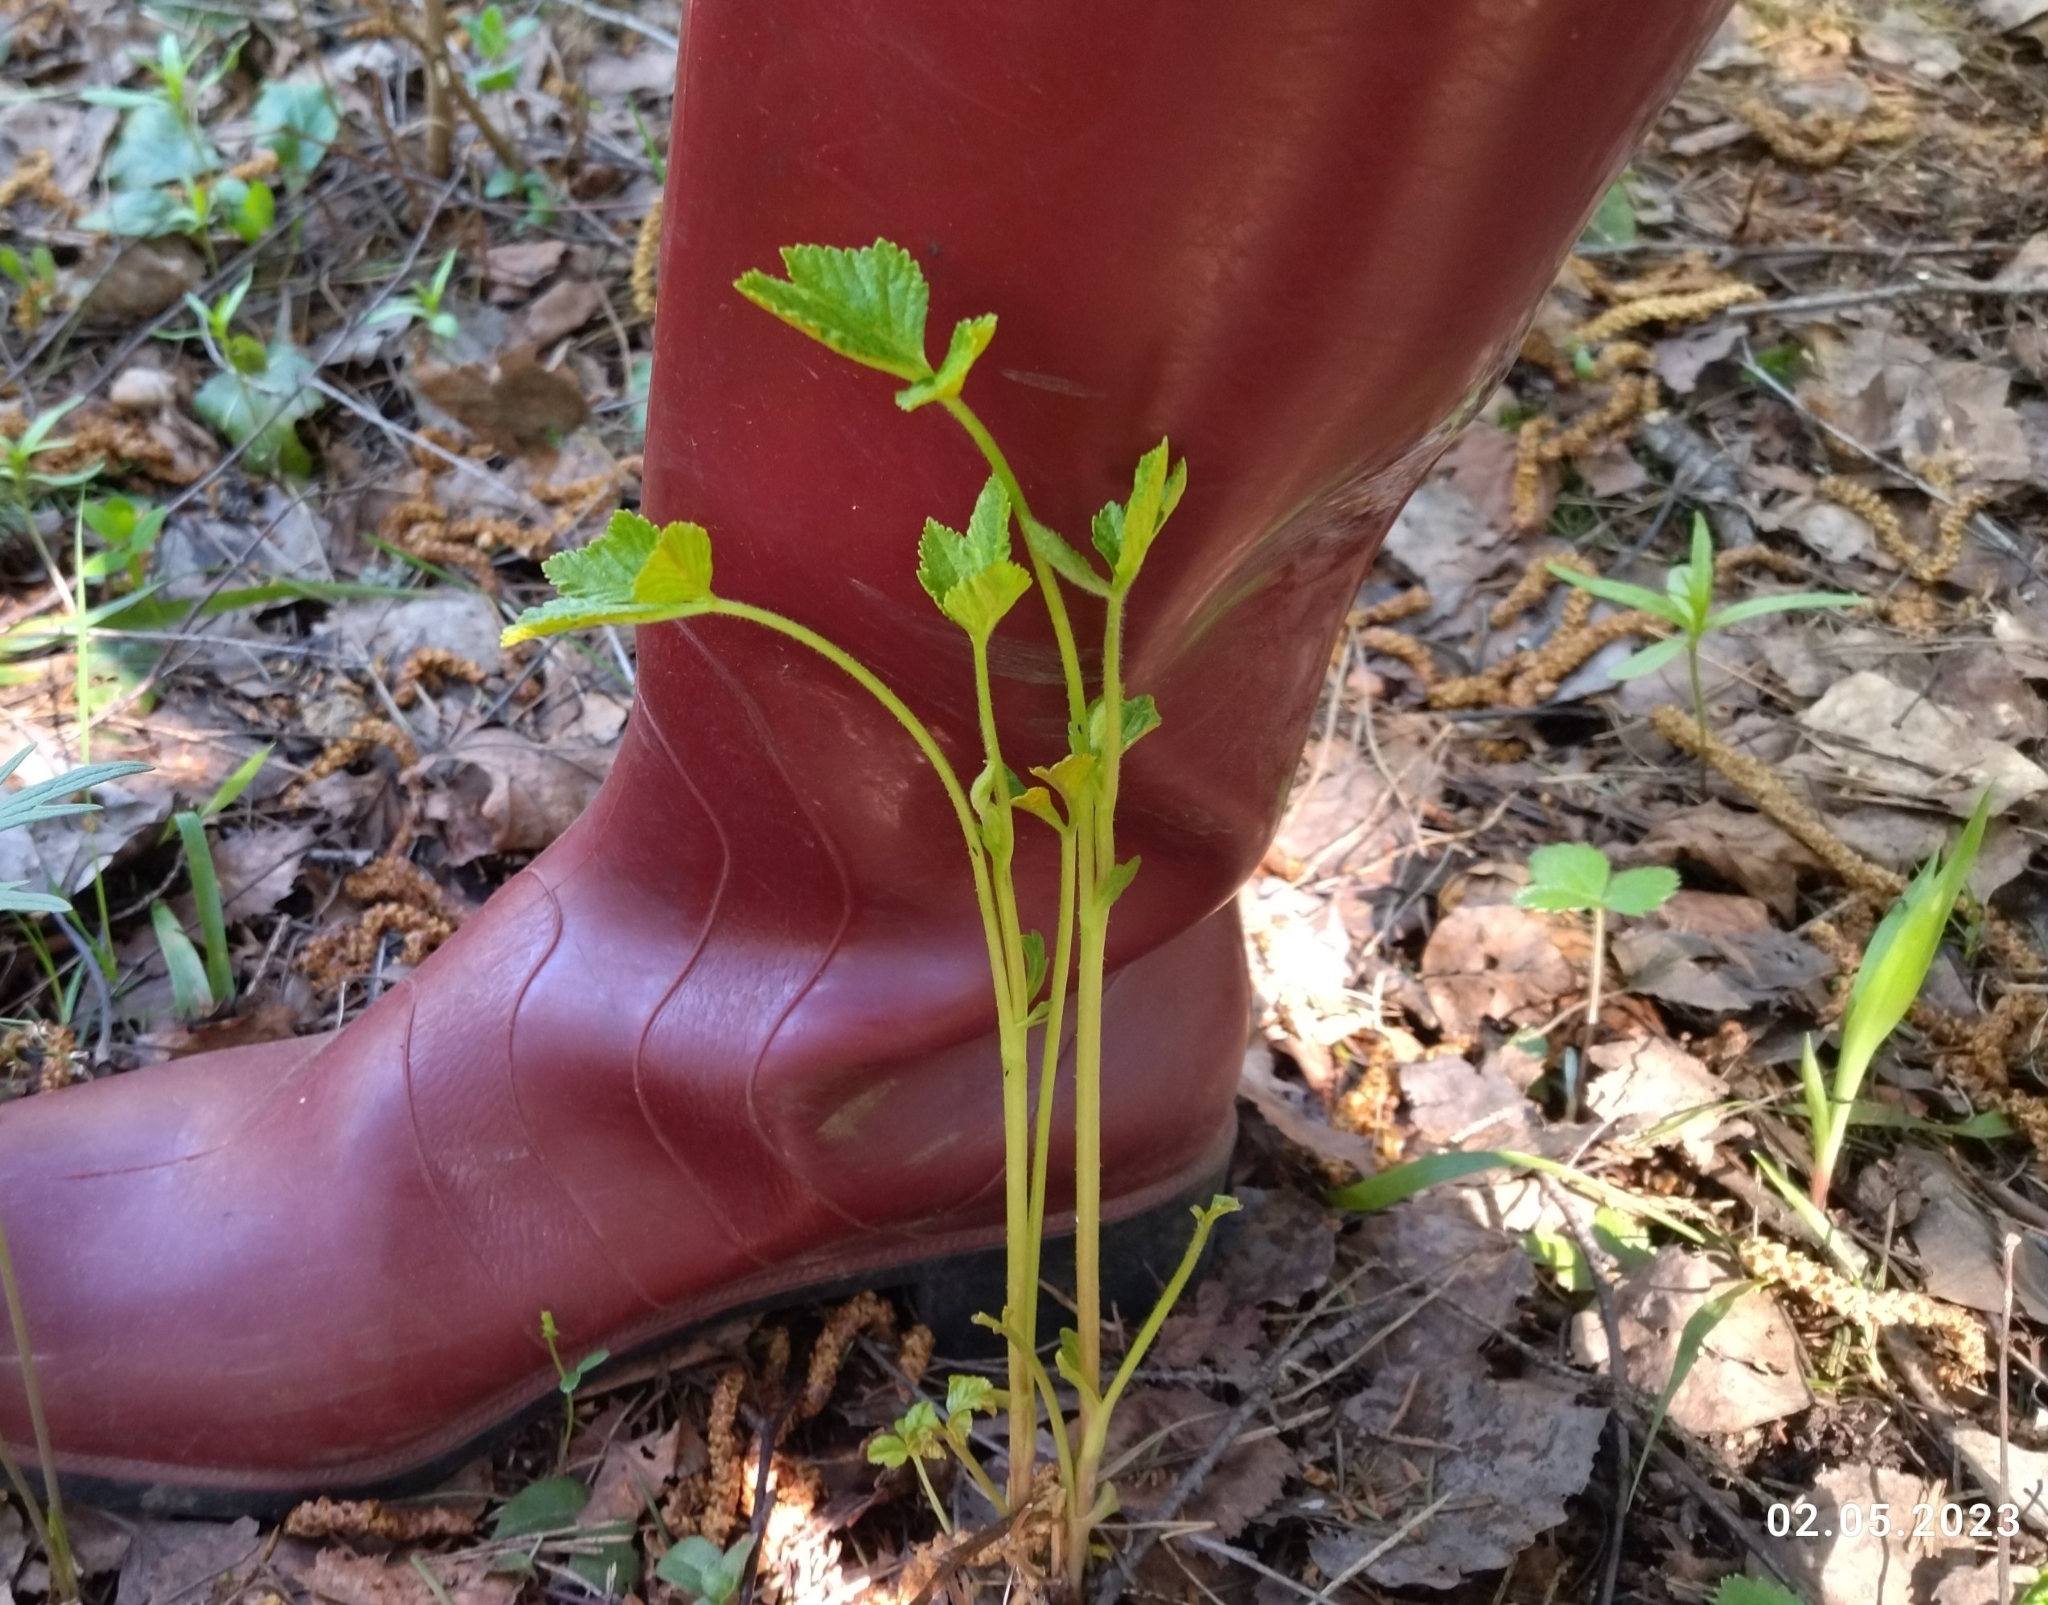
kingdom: Plantae
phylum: Tracheophyta
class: Magnoliopsida
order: Rosales
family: Rosaceae
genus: Rubus
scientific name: Rubus saxatilis
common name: Stone bramble
